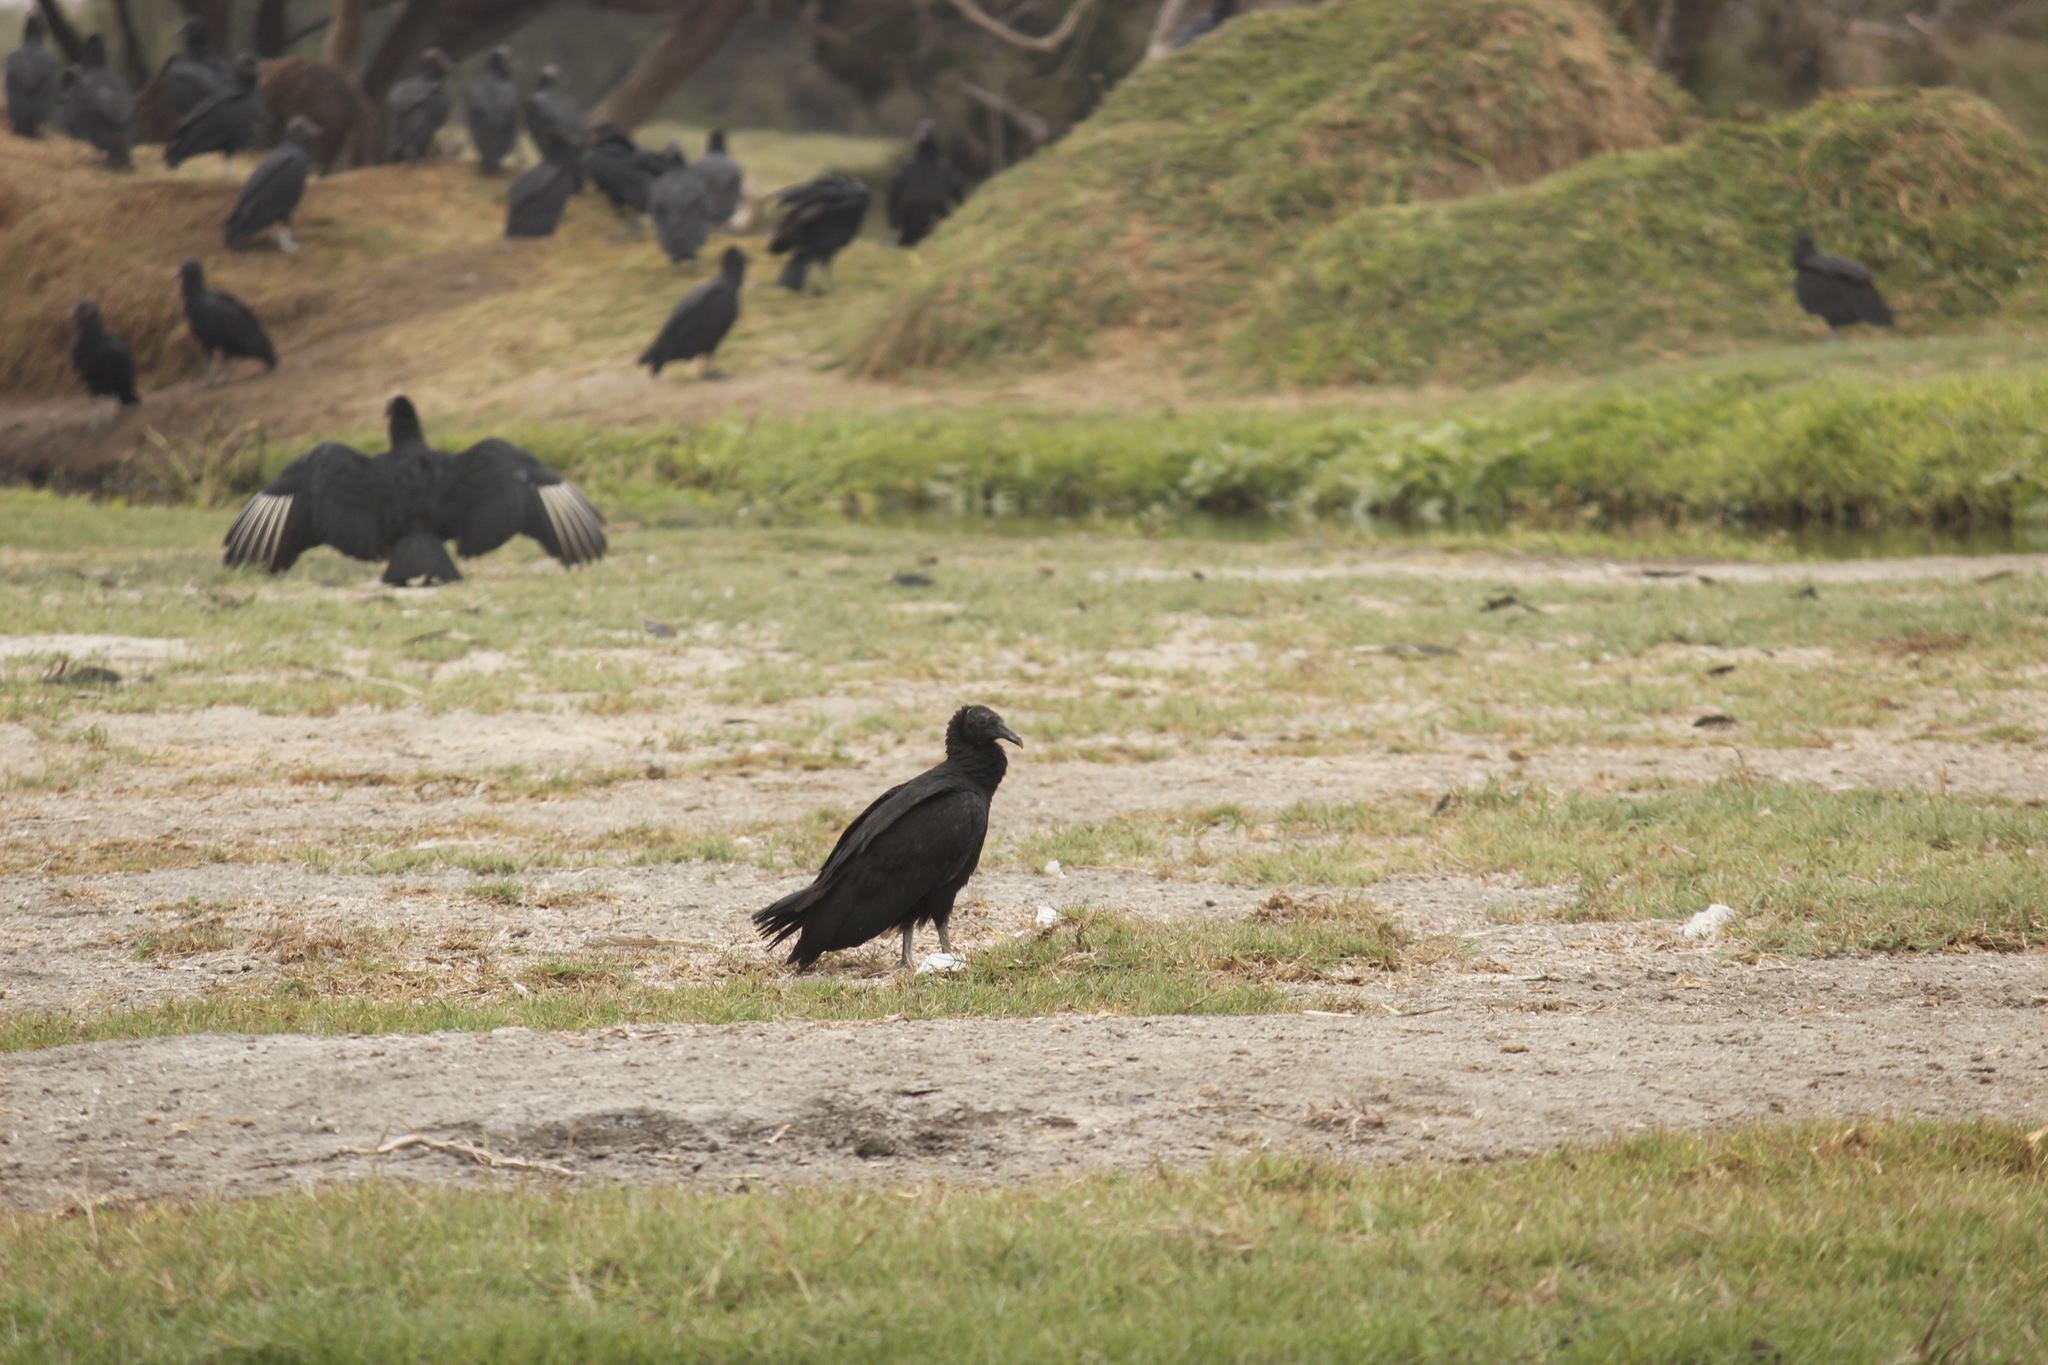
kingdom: Animalia
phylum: Chordata
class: Aves
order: Accipitriformes
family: Cathartidae
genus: Coragyps
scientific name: Coragyps atratus
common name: Black vulture
